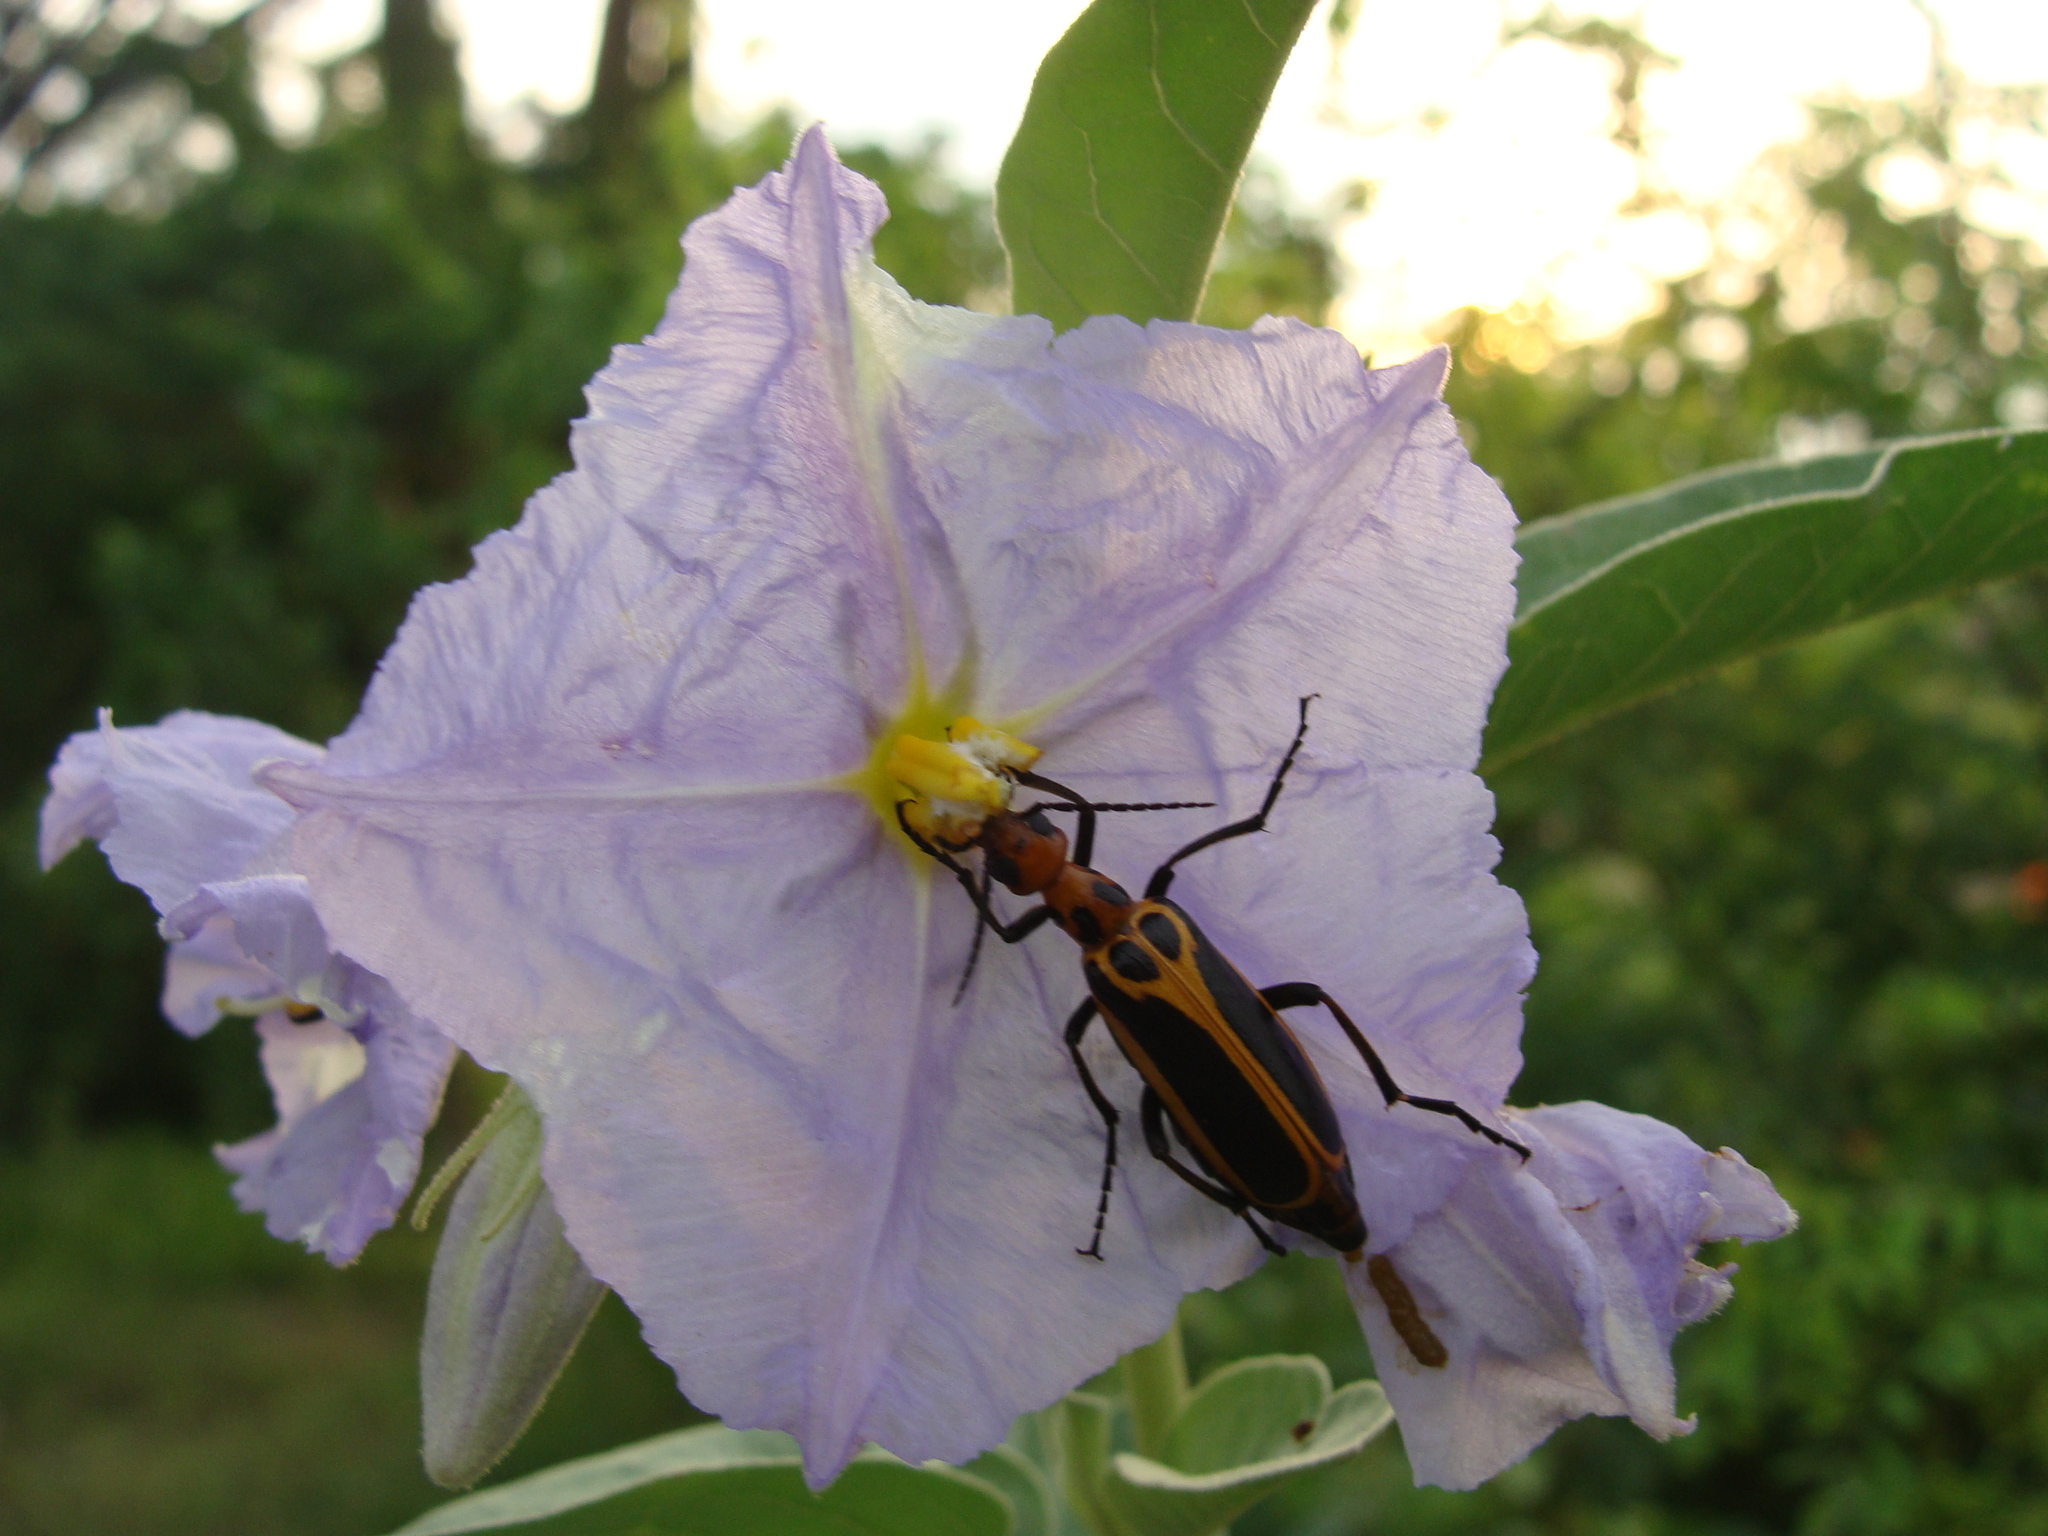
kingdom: Animalia
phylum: Arthropoda
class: Insecta
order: Coleoptera
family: Meloidae
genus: Pyrota
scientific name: Pyrota
